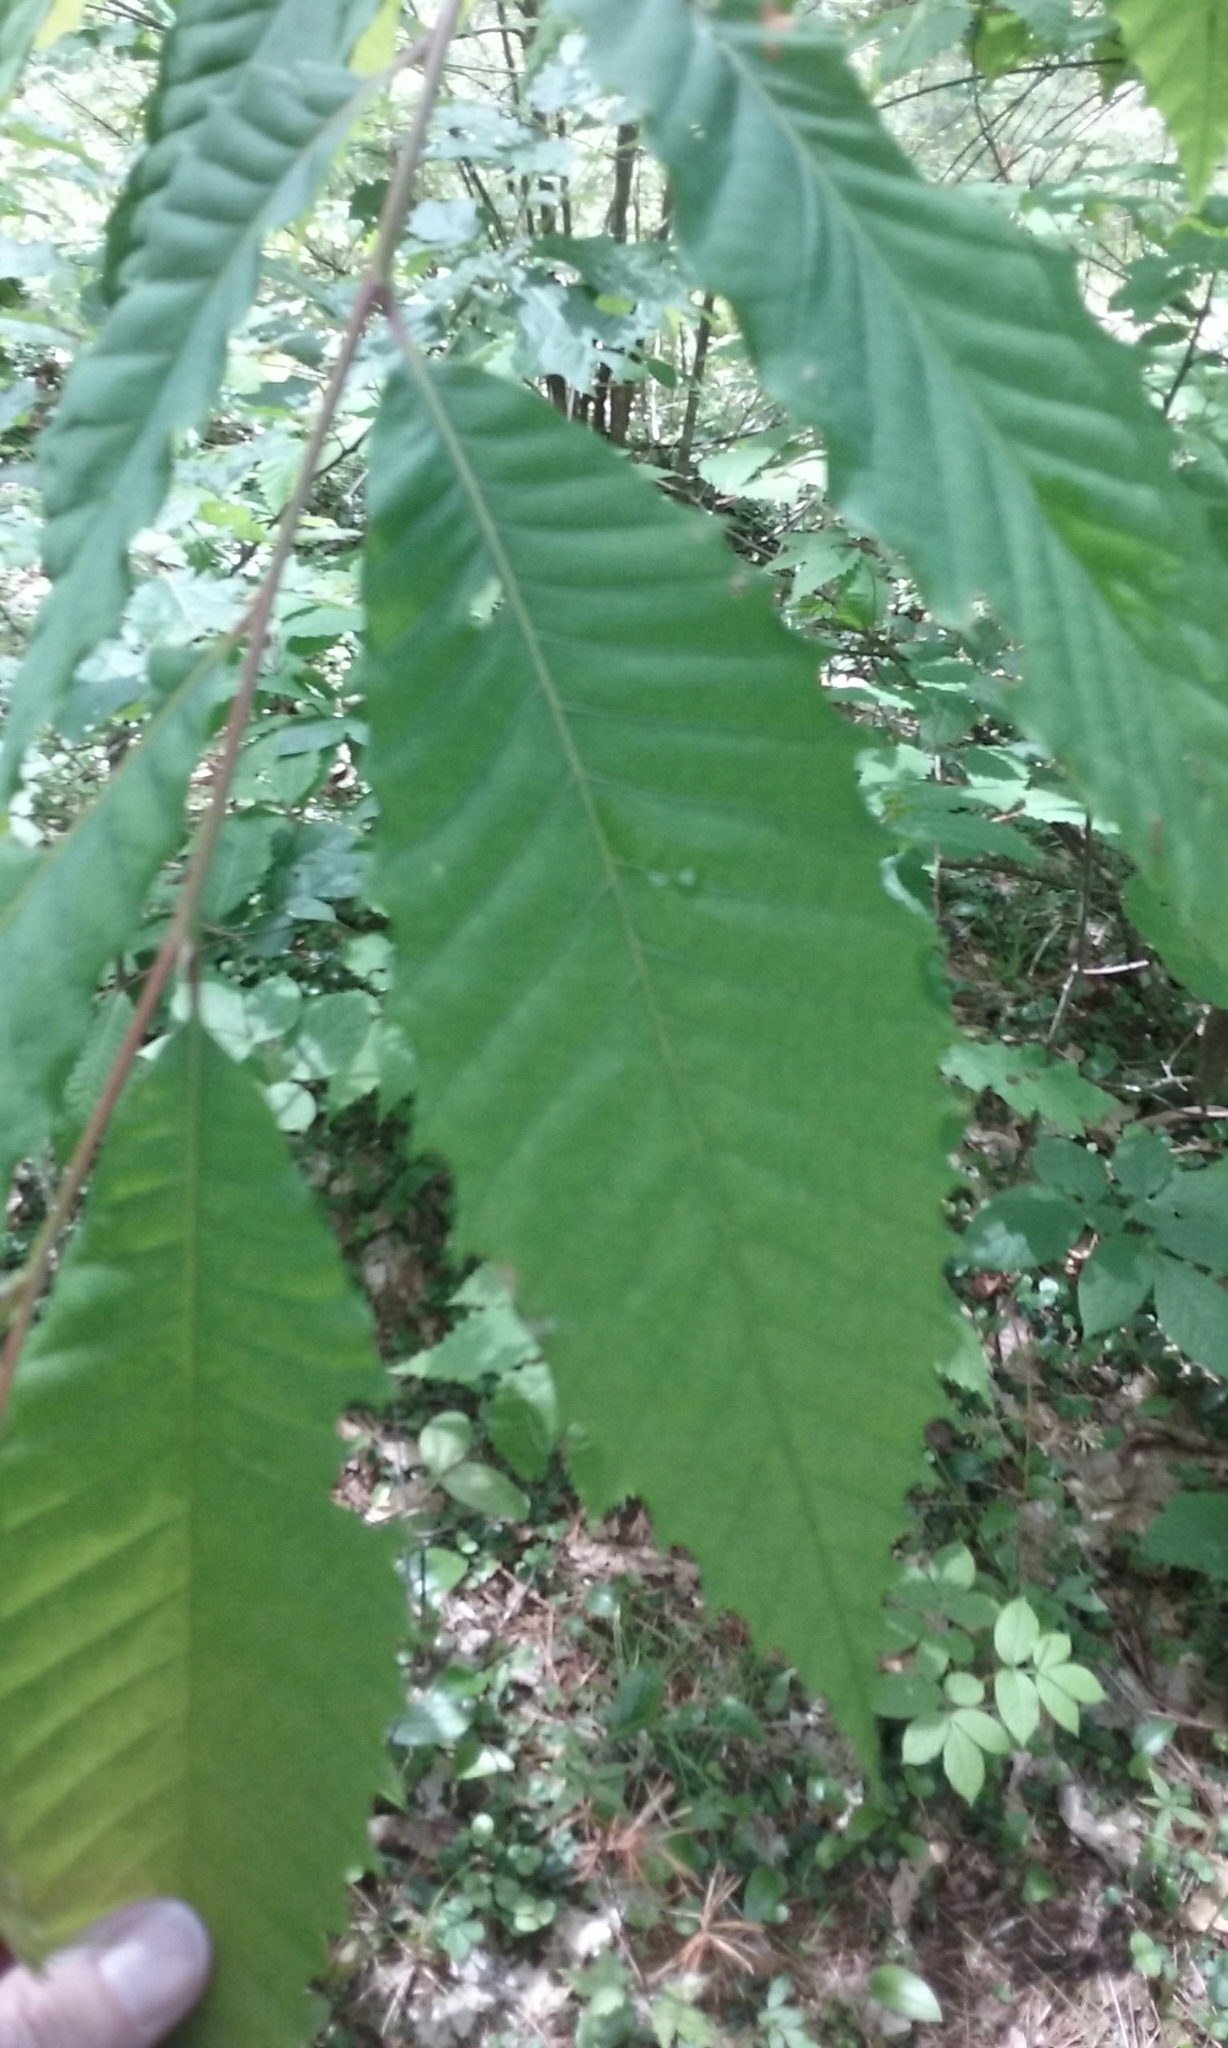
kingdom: Plantae
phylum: Tracheophyta
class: Magnoliopsida
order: Fagales
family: Fagaceae
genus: Castanea
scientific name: Castanea dentata
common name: American chestnut
